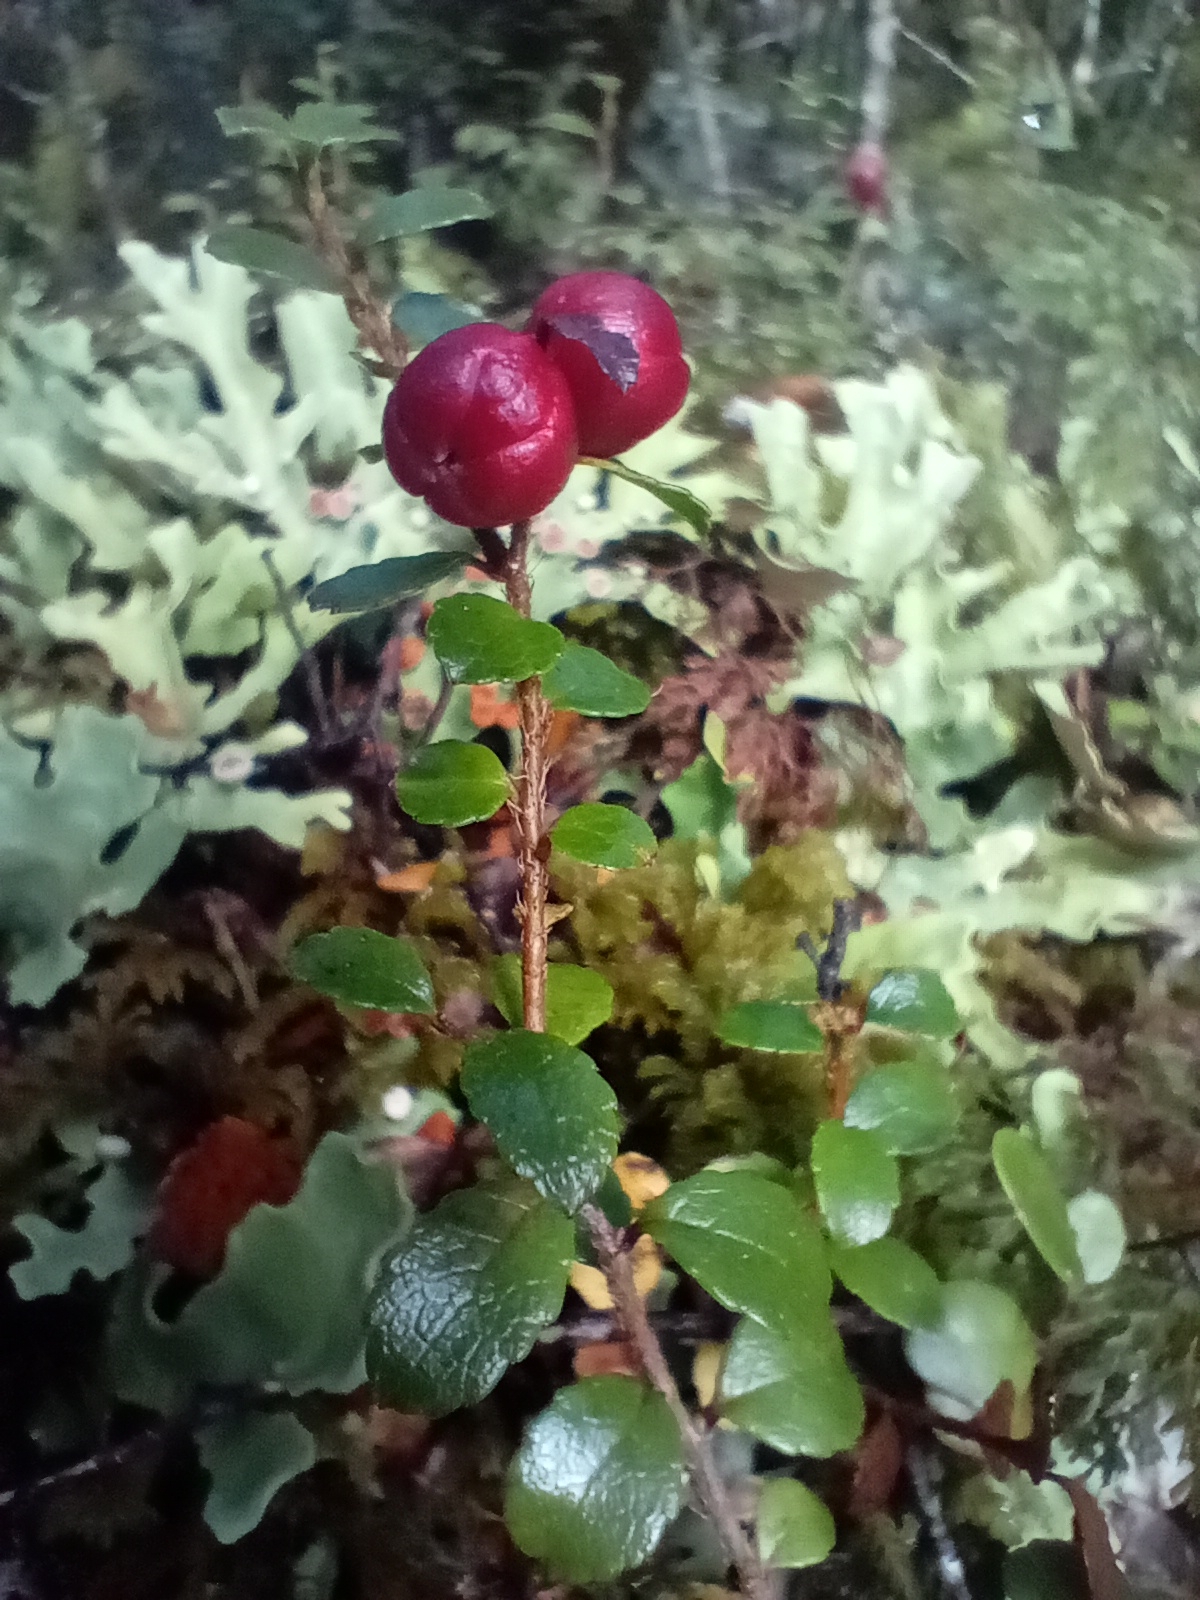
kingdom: Plantae
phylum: Tracheophyta
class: Magnoliopsida
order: Ericales
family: Ericaceae
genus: Gaultheria
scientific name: Gaultheria depressa
